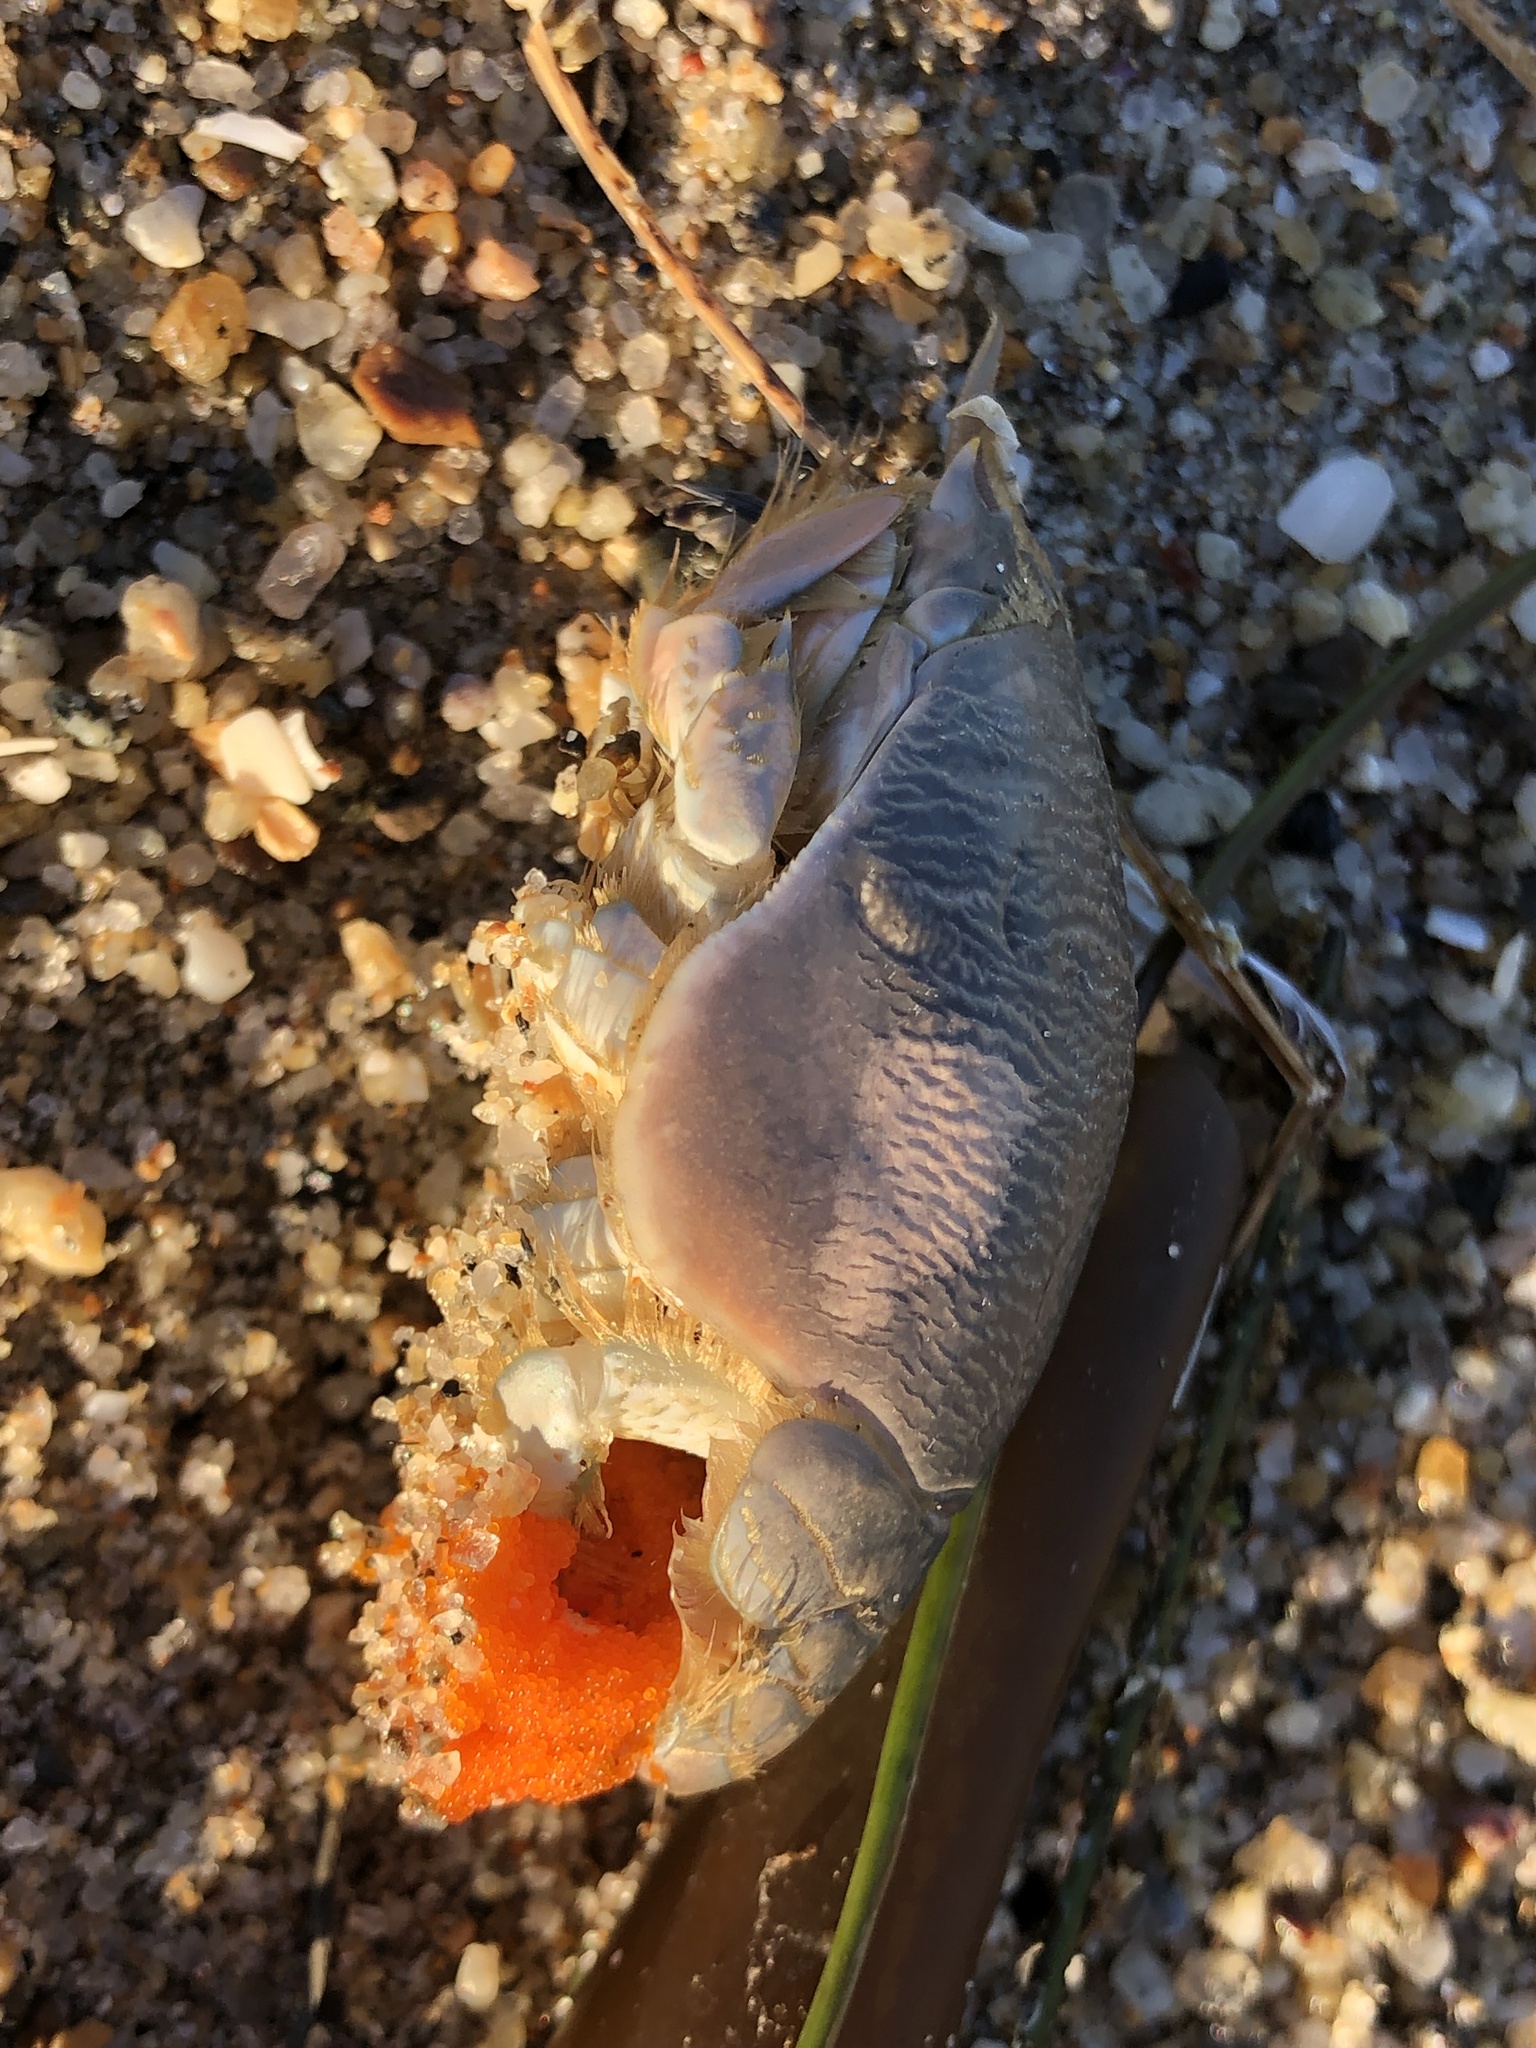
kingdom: Animalia
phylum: Arthropoda
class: Malacostraca
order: Decapoda
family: Hippidae
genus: Emerita
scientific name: Emerita analoga
